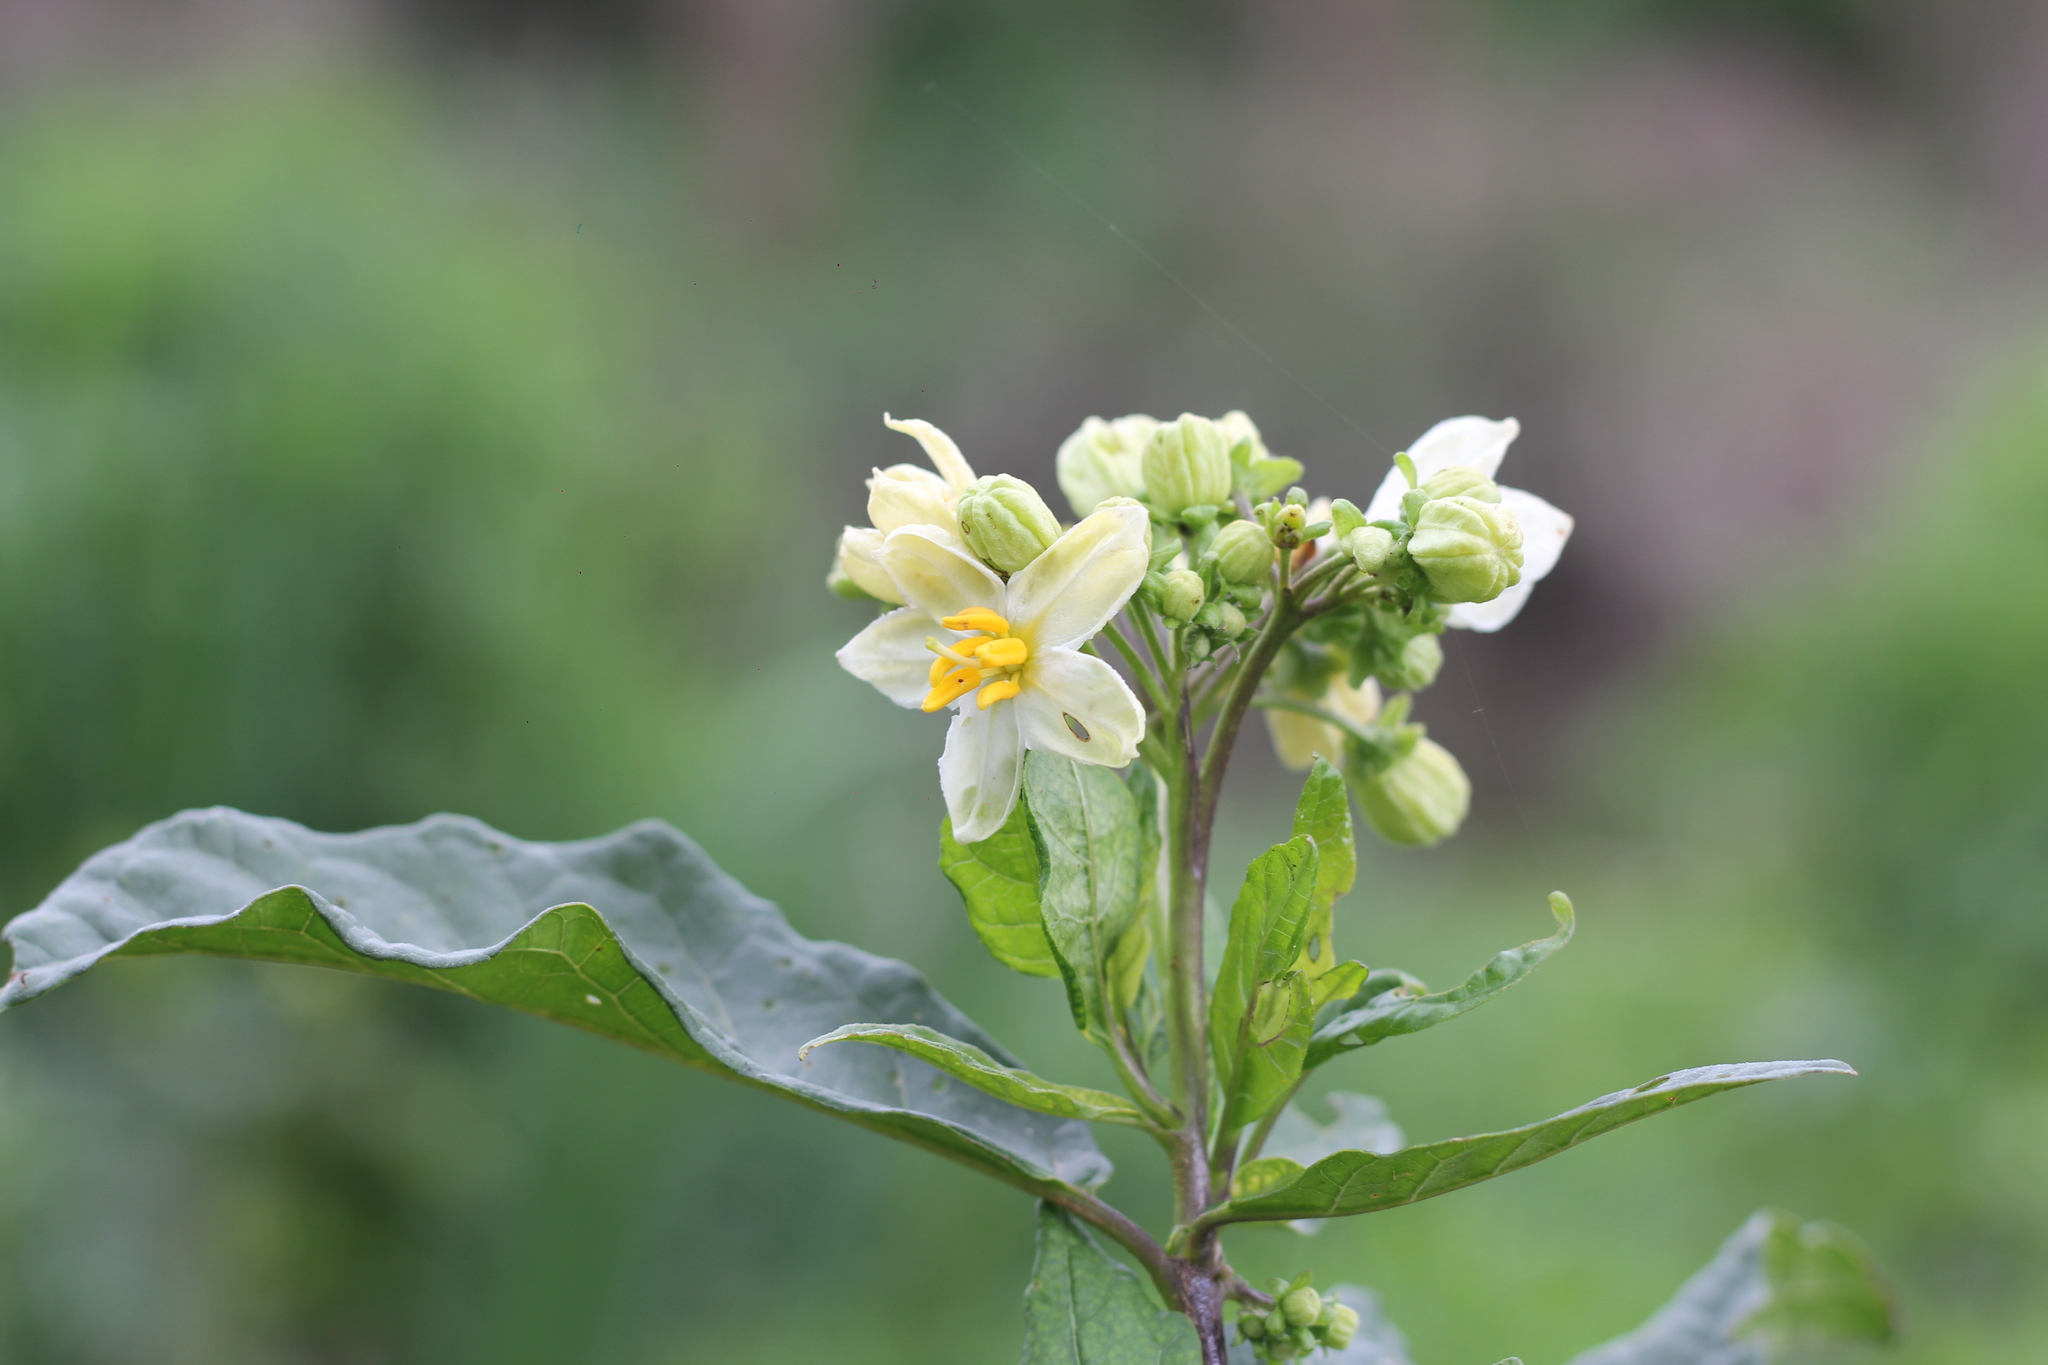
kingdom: Plantae
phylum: Tracheophyta
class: Magnoliopsida
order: Solanales
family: Solanaceae
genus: Solanum
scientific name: Solanum bonariense
